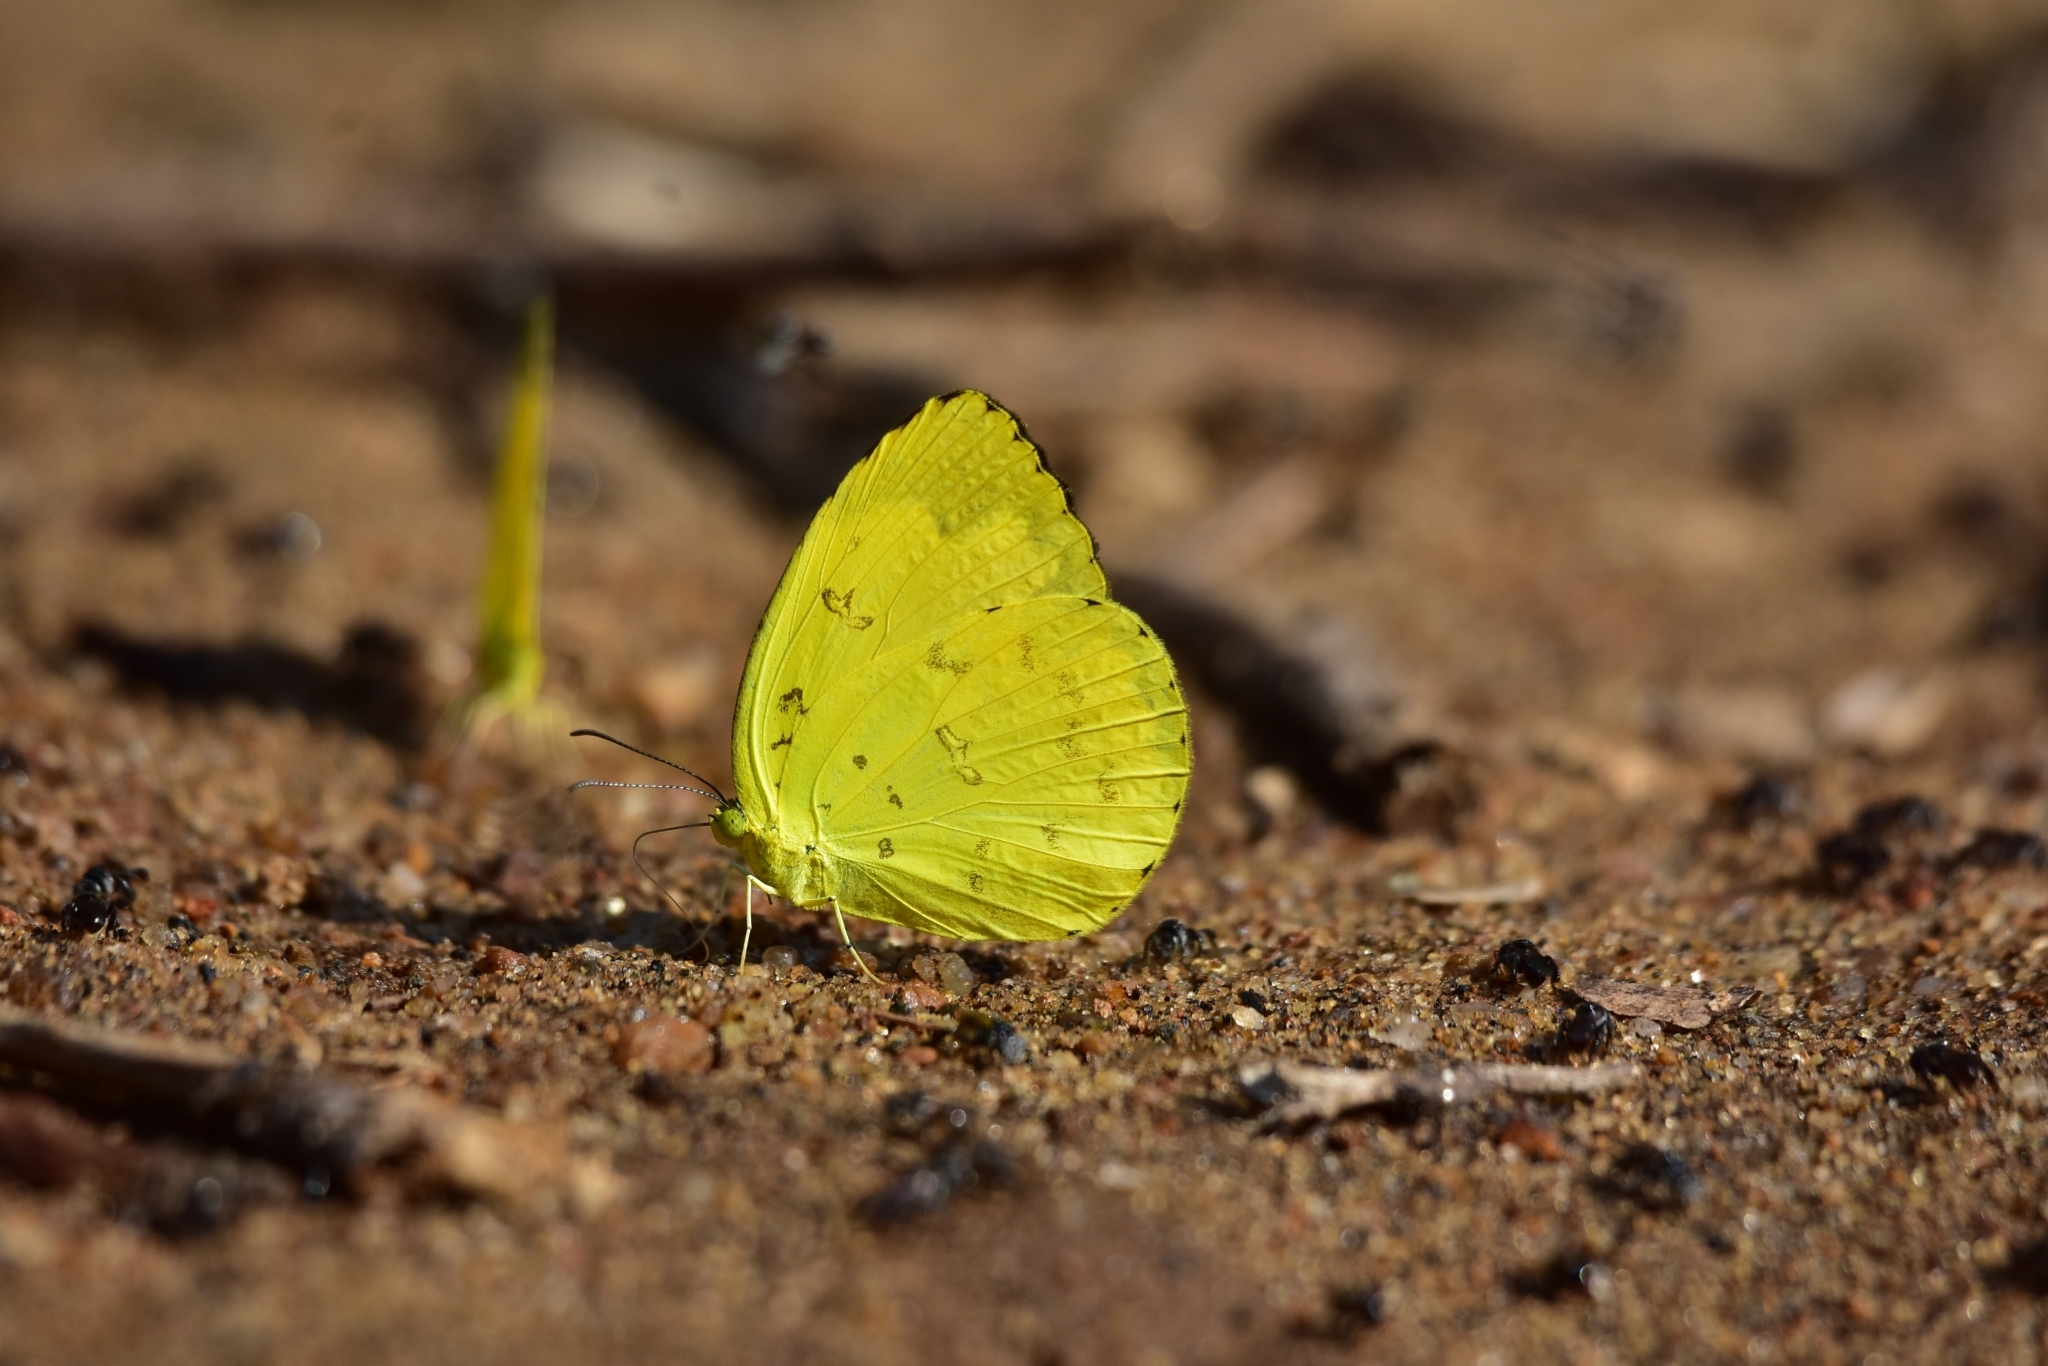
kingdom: Animalia
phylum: Arthropoda
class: Insecta
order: Lepidoptera
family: Pieridae
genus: Eurema
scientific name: Eurema blanda
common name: Three-spot grass yellow
